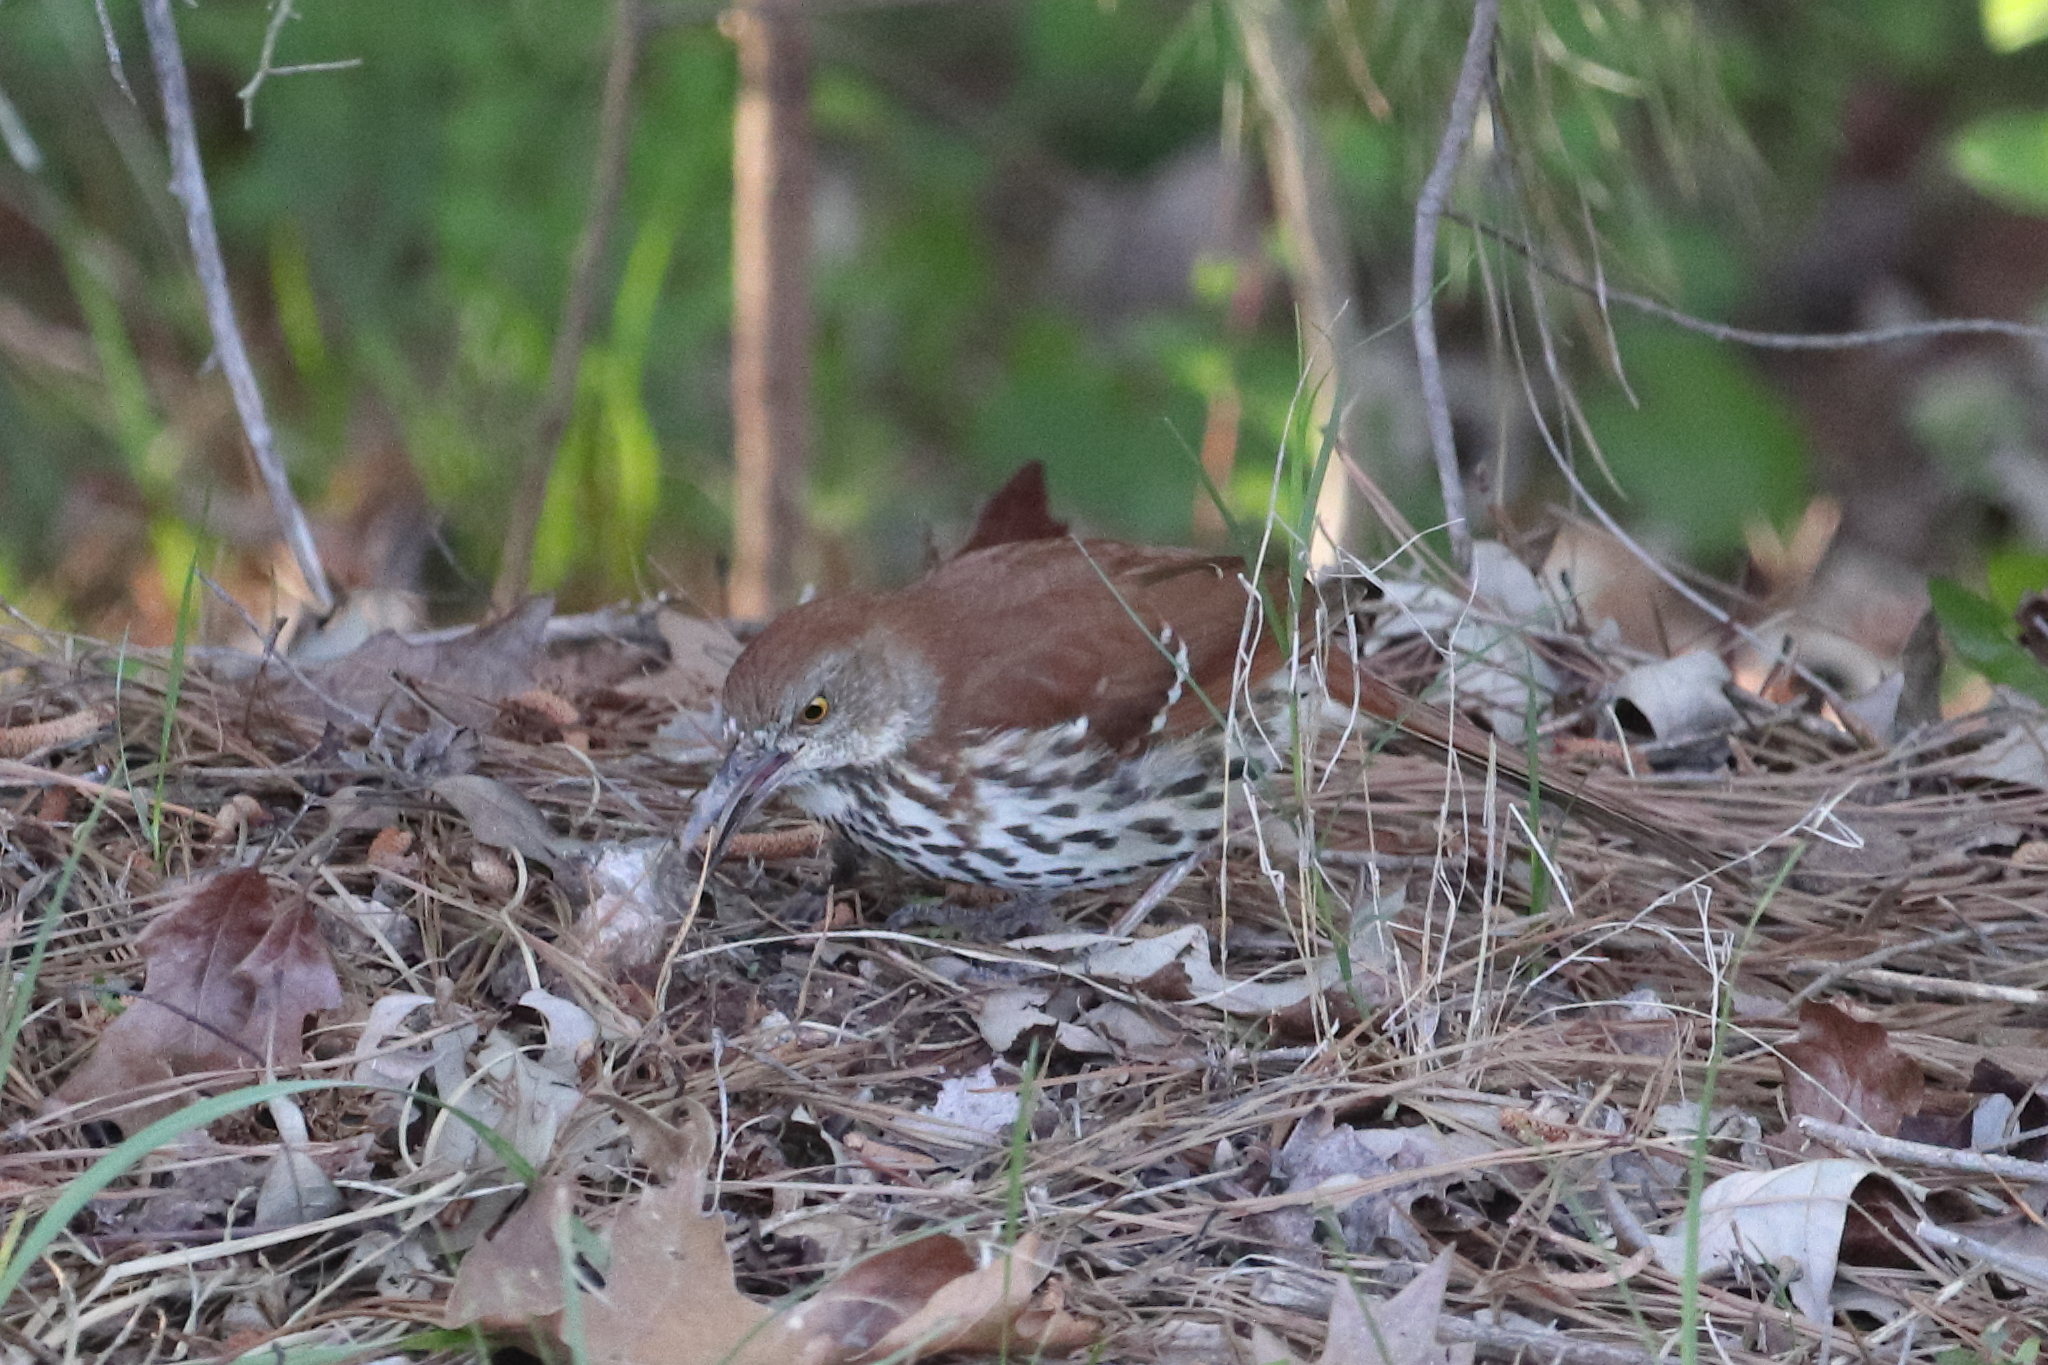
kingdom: Animalia
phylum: Chordata
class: Aves
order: Passeriformes
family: Mimidae
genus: Toxostoma
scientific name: Toxostoma rufum
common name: Brown thrasher
